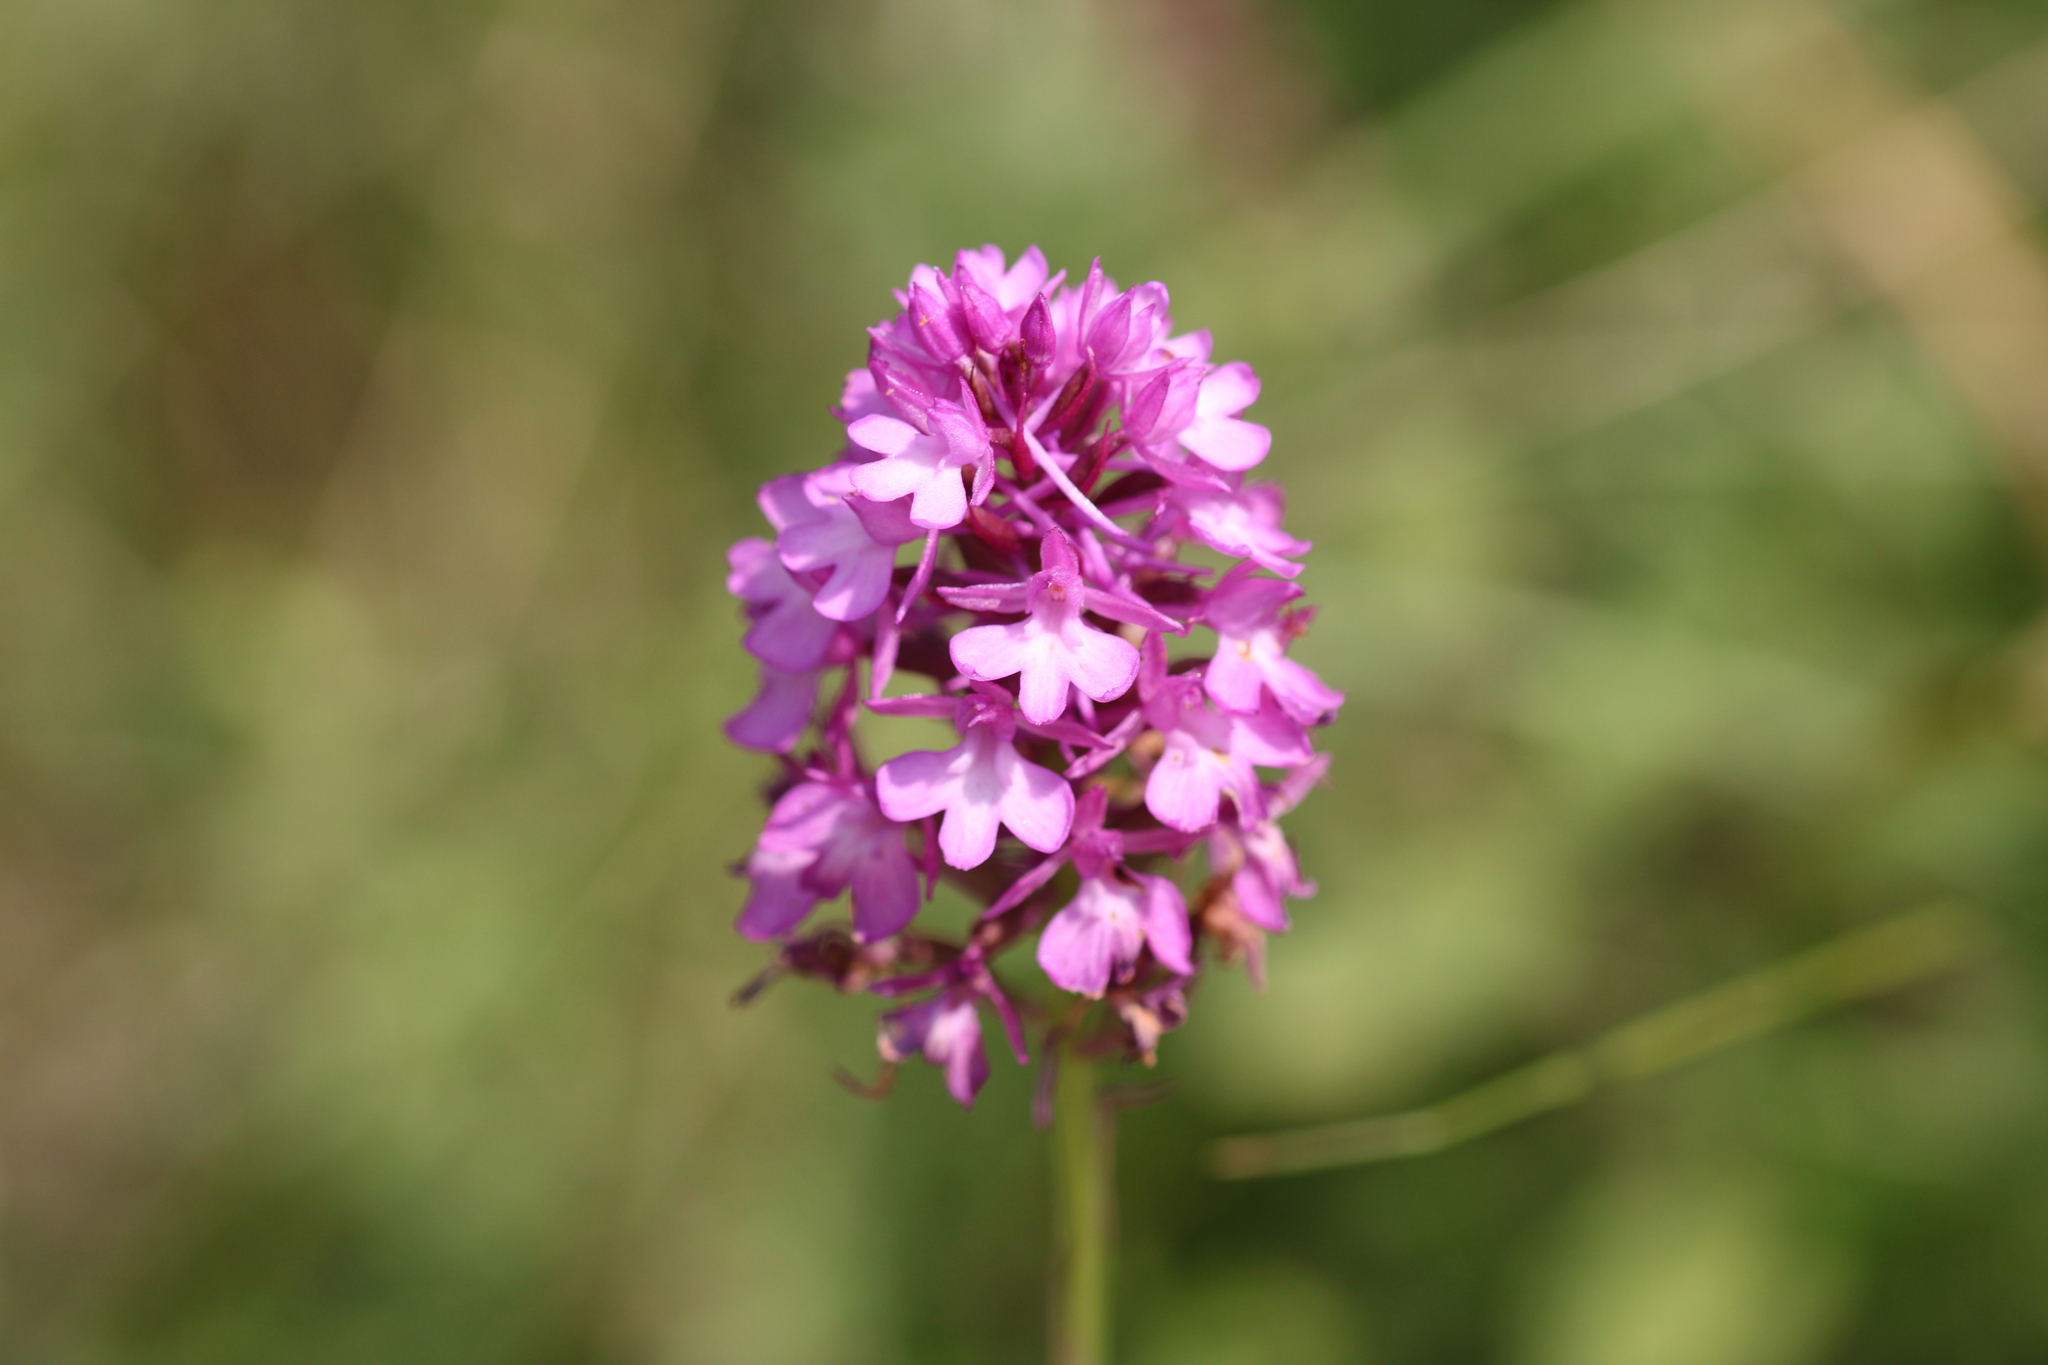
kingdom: Plantae
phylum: Tracheophyta
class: Liliopsida
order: Asparagales
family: Orchidaceae
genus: Anacamptis
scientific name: Anacamptis pyramidalis
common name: Pyramidal orchid
